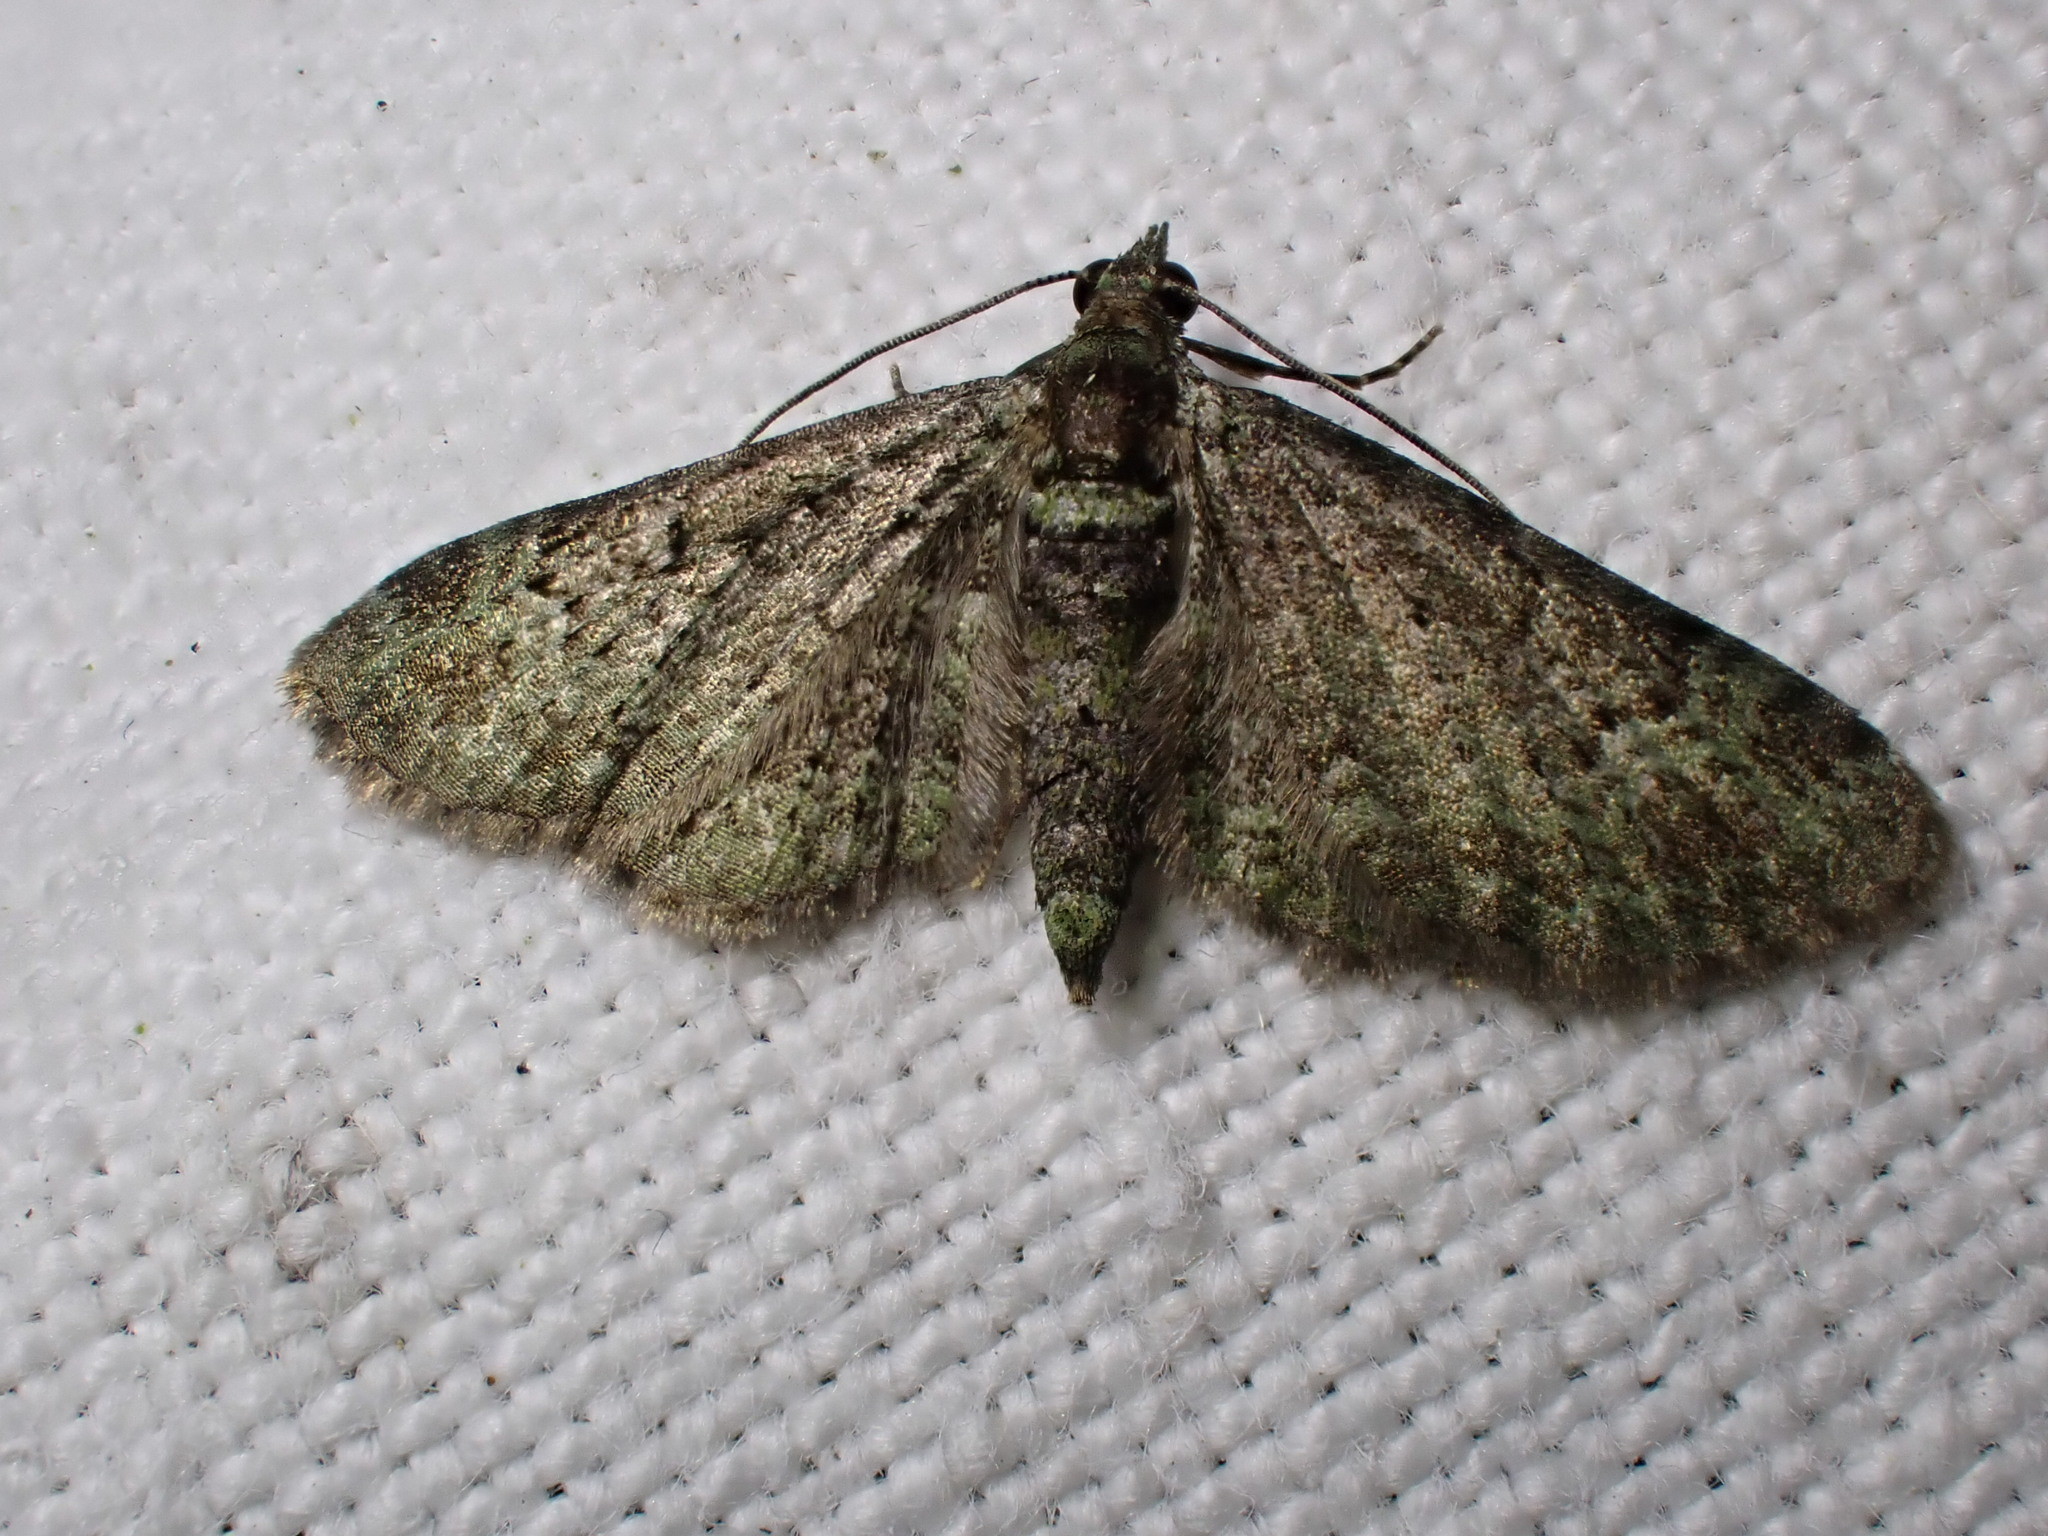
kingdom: Animalia
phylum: Arthropoda
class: Insecta
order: Lepidoptera
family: Geometridae
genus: Pasiphila
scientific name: Pasiphila rectangulata
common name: Green pug
